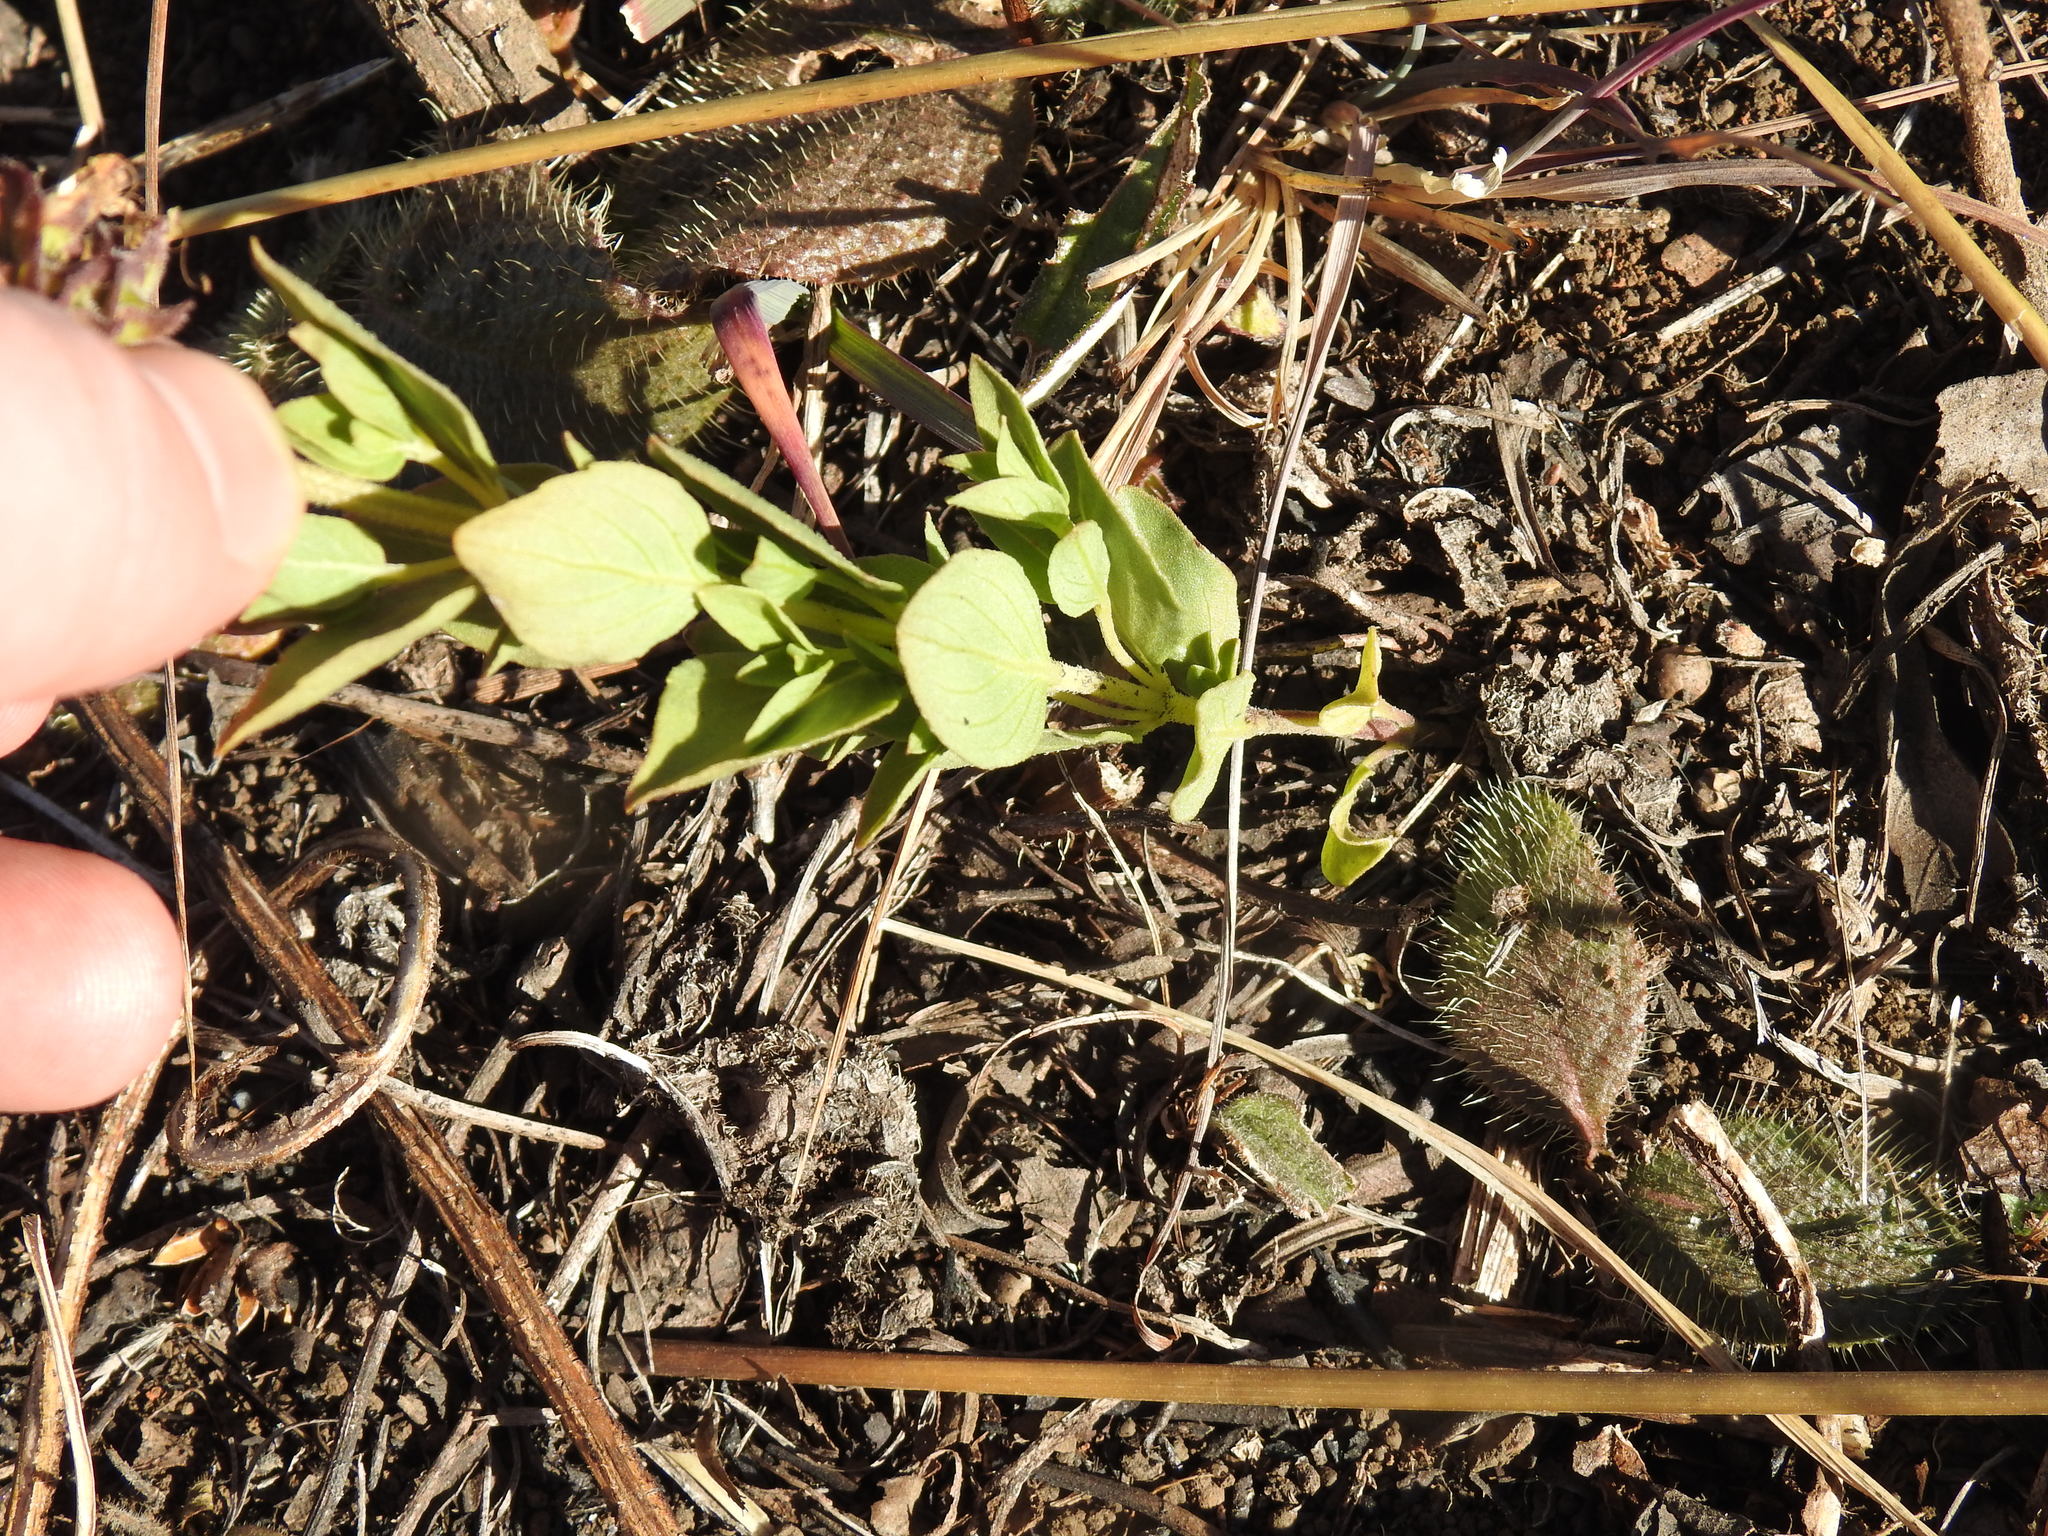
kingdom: Plantae
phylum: Tracheophyta
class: Magnoliopsida
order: Lamiales
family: Lamiaceae
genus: Ocimum
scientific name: Ocimum obovatum
